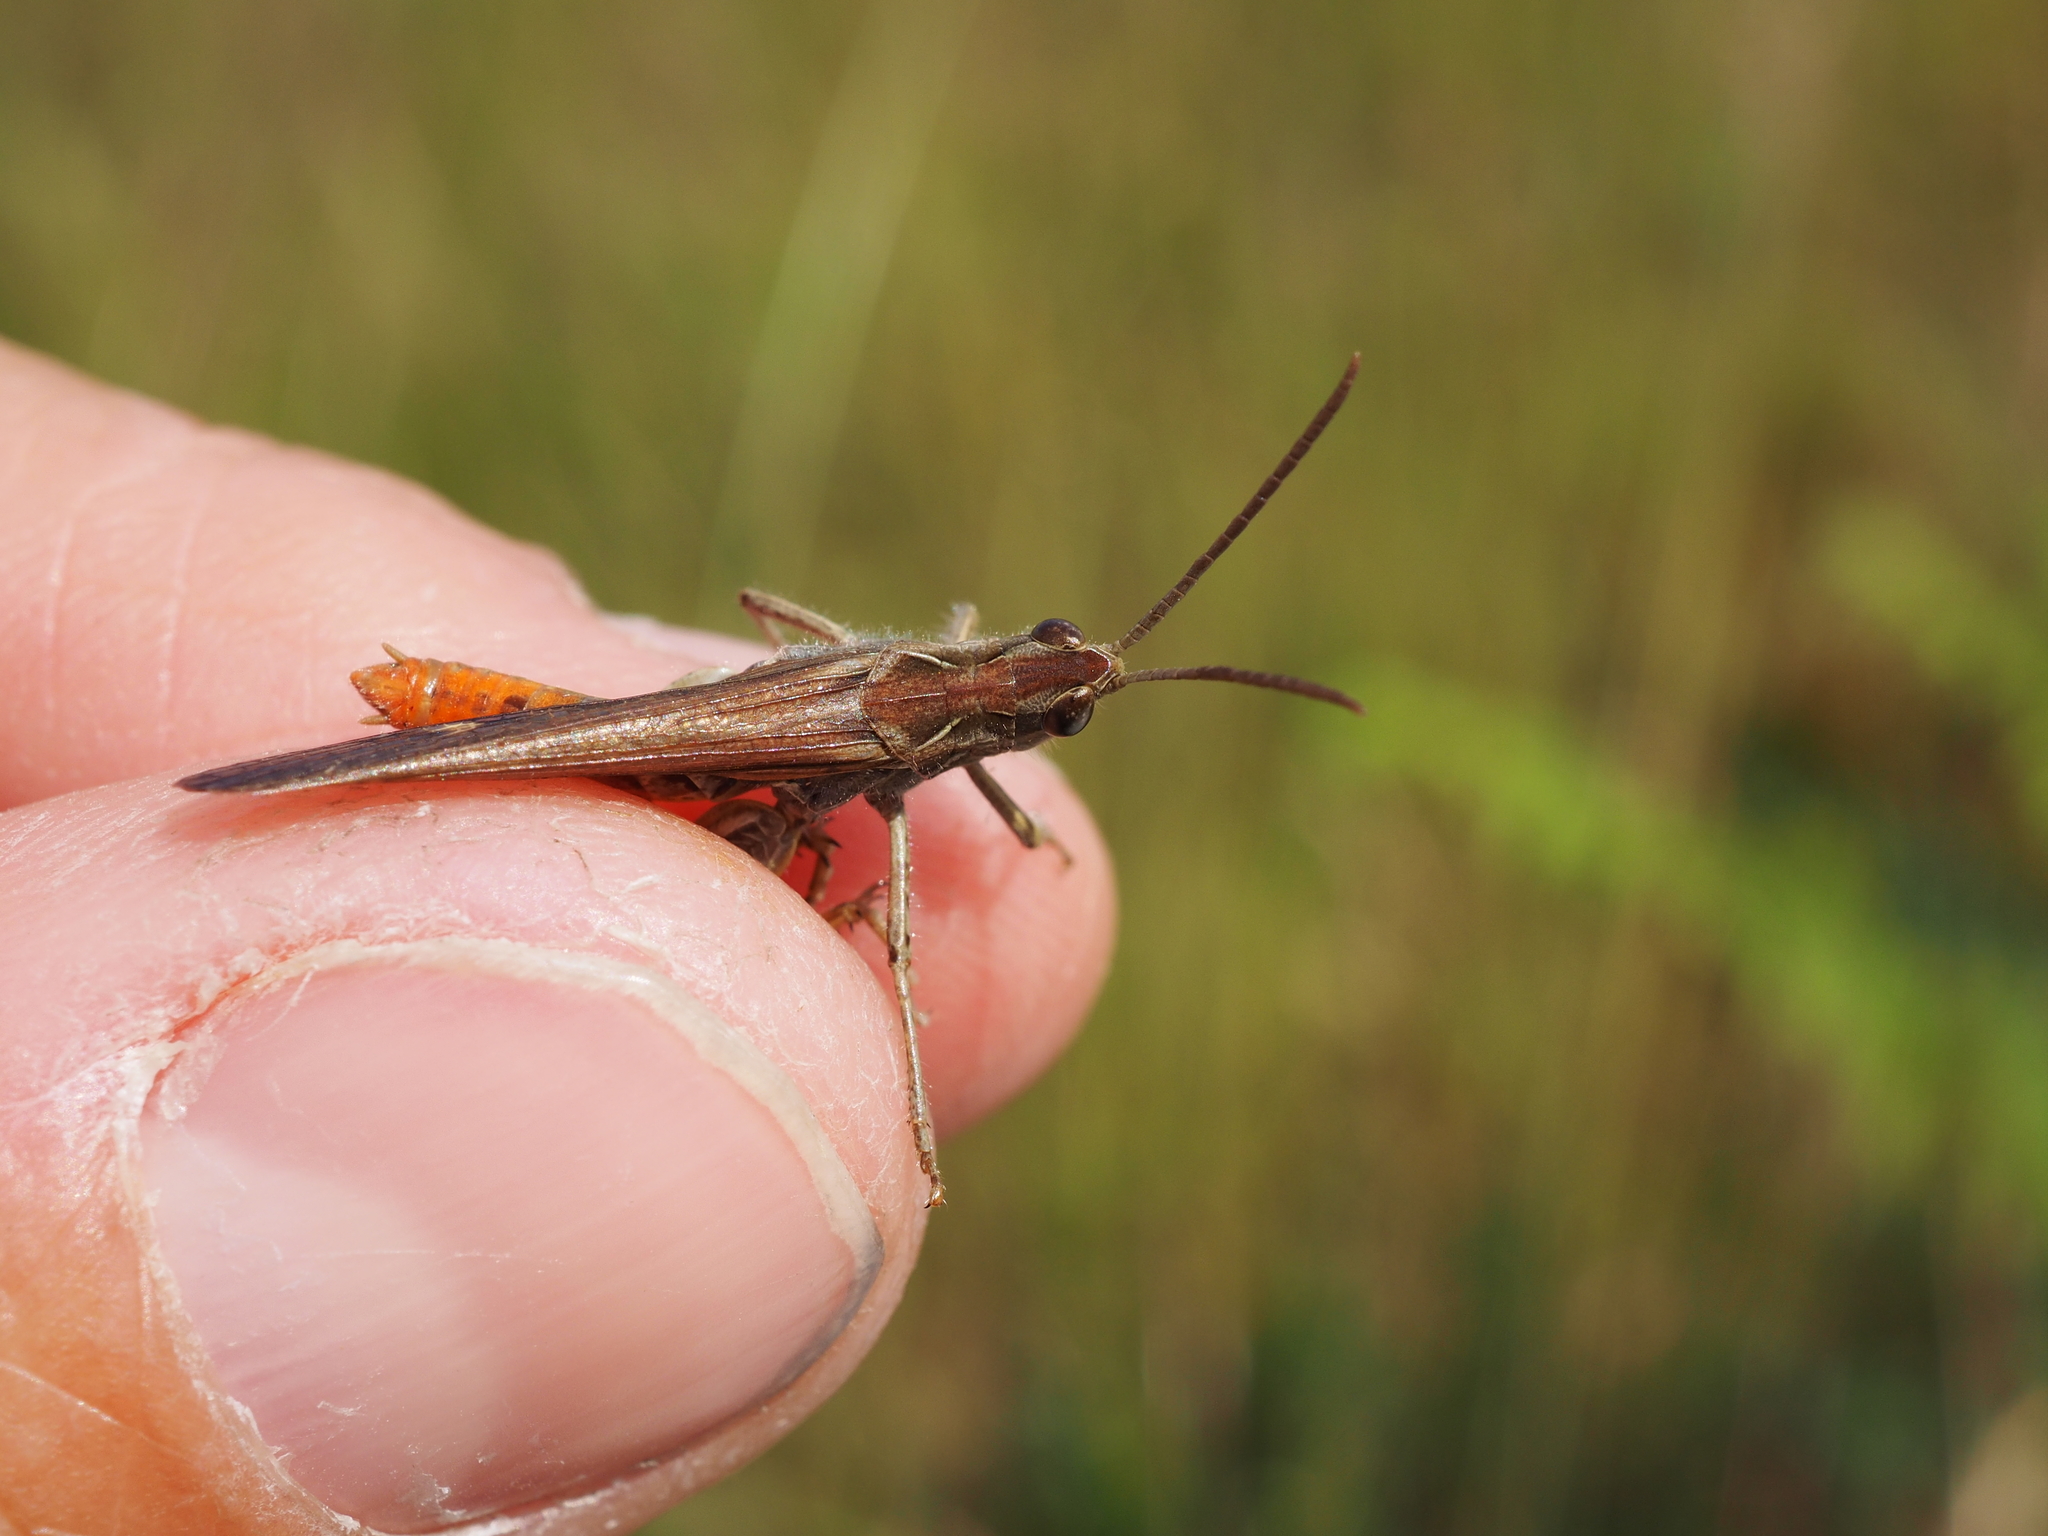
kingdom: Animalia
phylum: Arthropoda
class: Insecta
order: Orthoptera
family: Acrididae
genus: Chorthippus
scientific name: Chorthippus brunneus
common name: Field grasshopper
